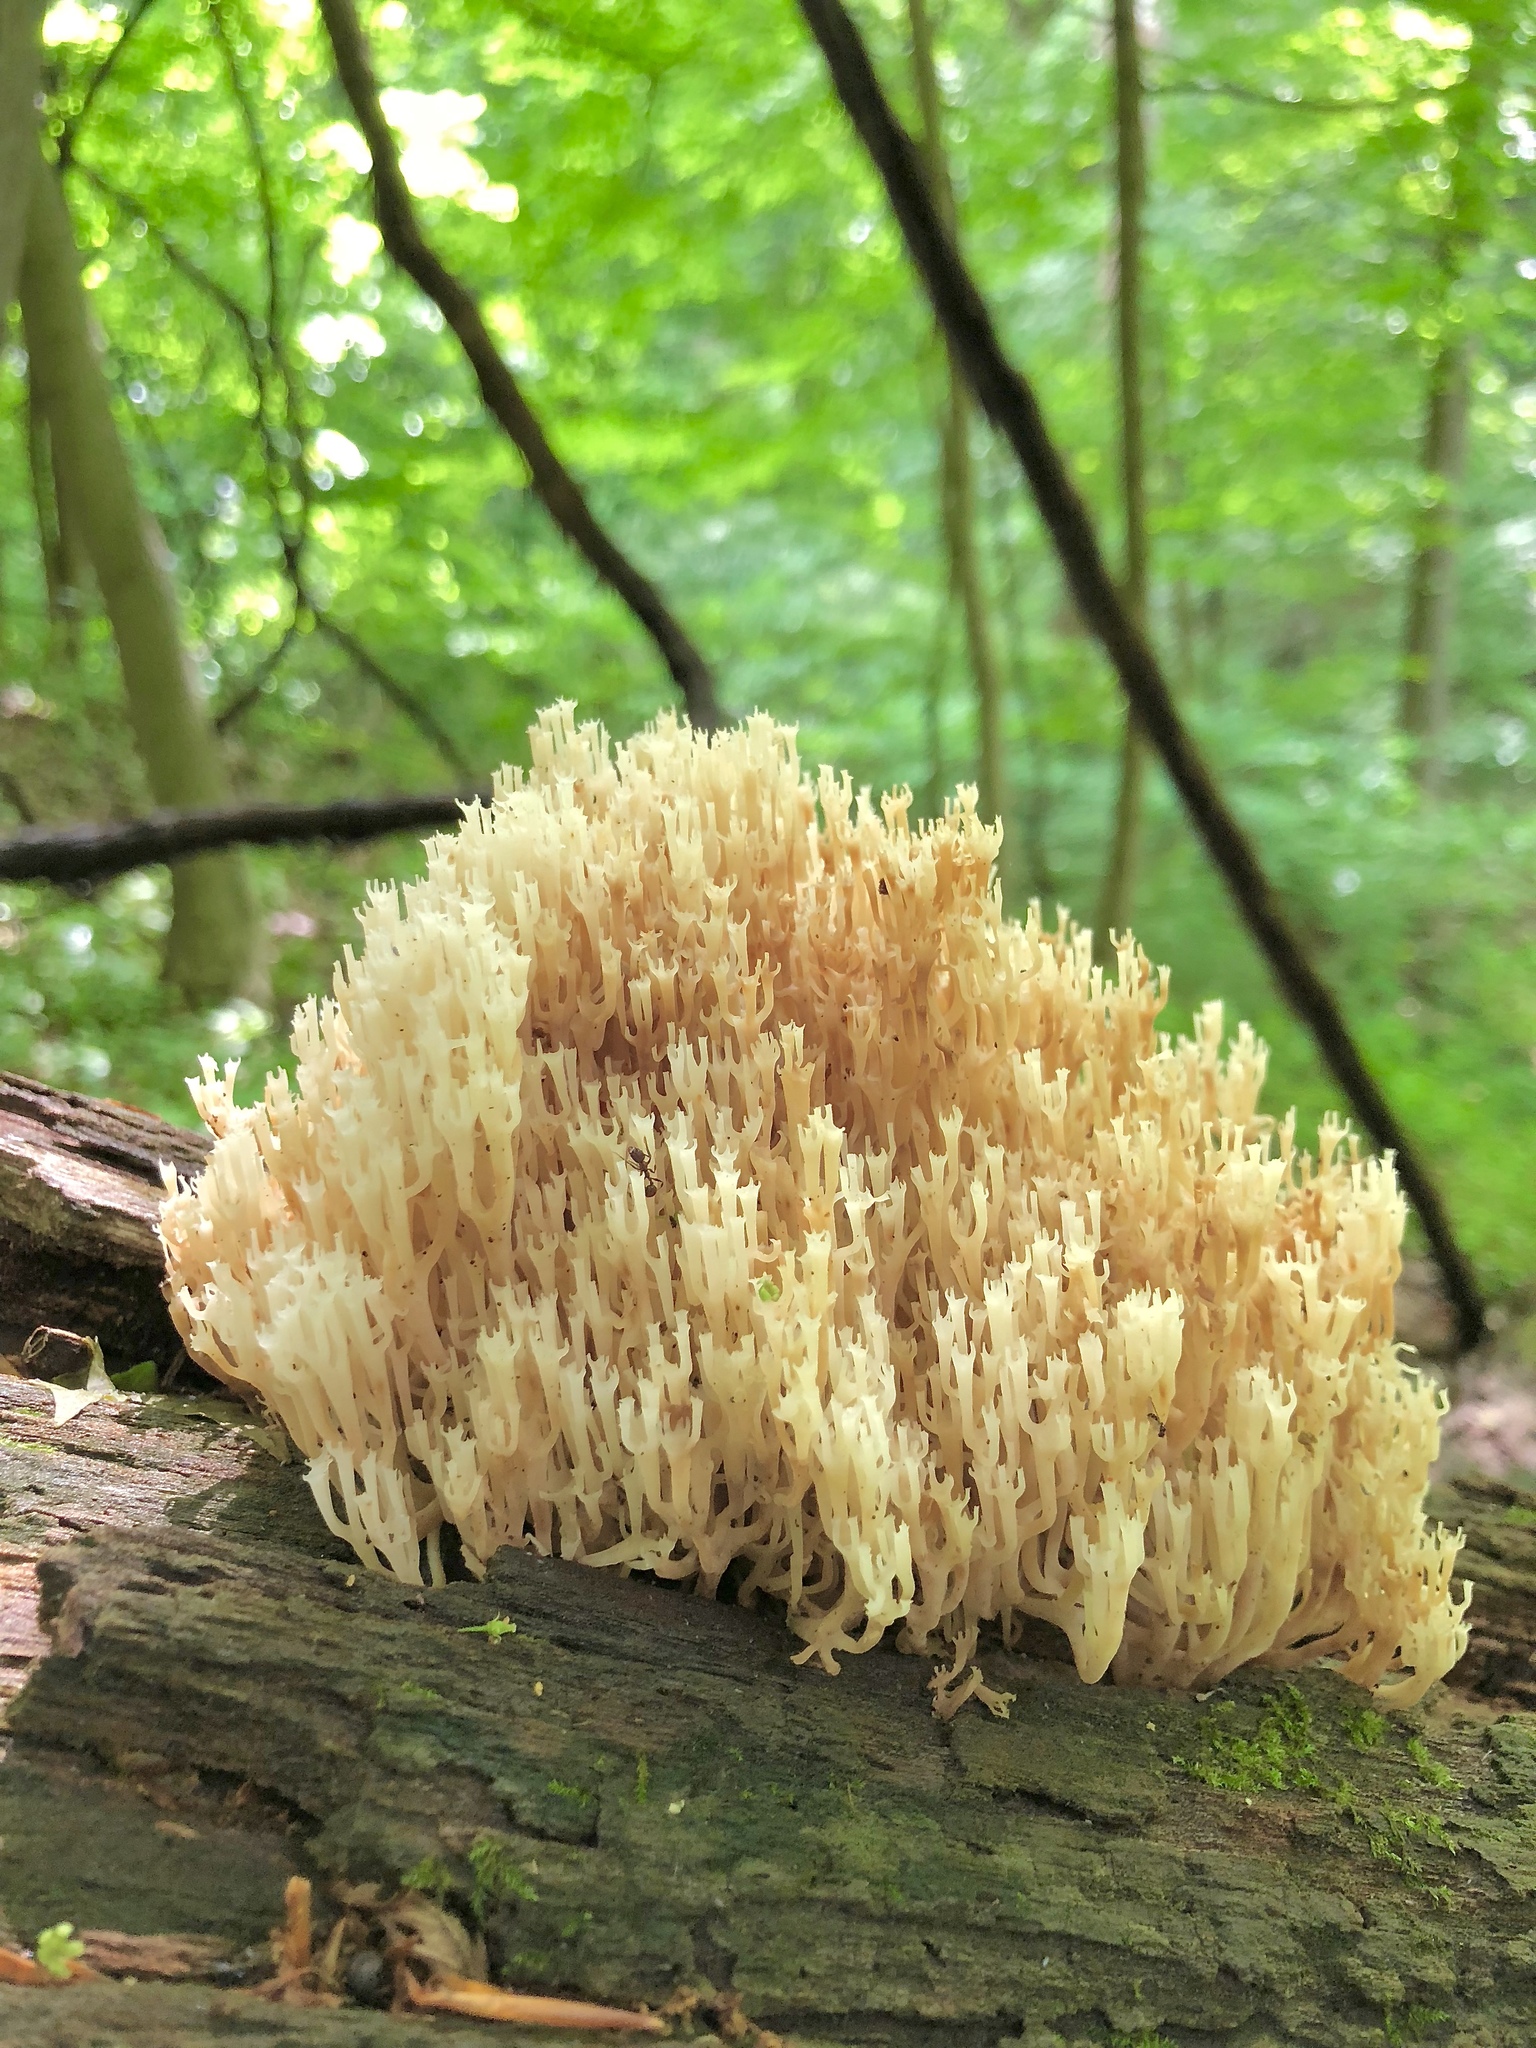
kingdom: Fungi
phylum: Basidiomycota
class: Agaricomycetes
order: Russulales
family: Auriscalpiaceae
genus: Artomyces
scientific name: Artomyces pyxidatus
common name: Crown-tipped coral fungus
